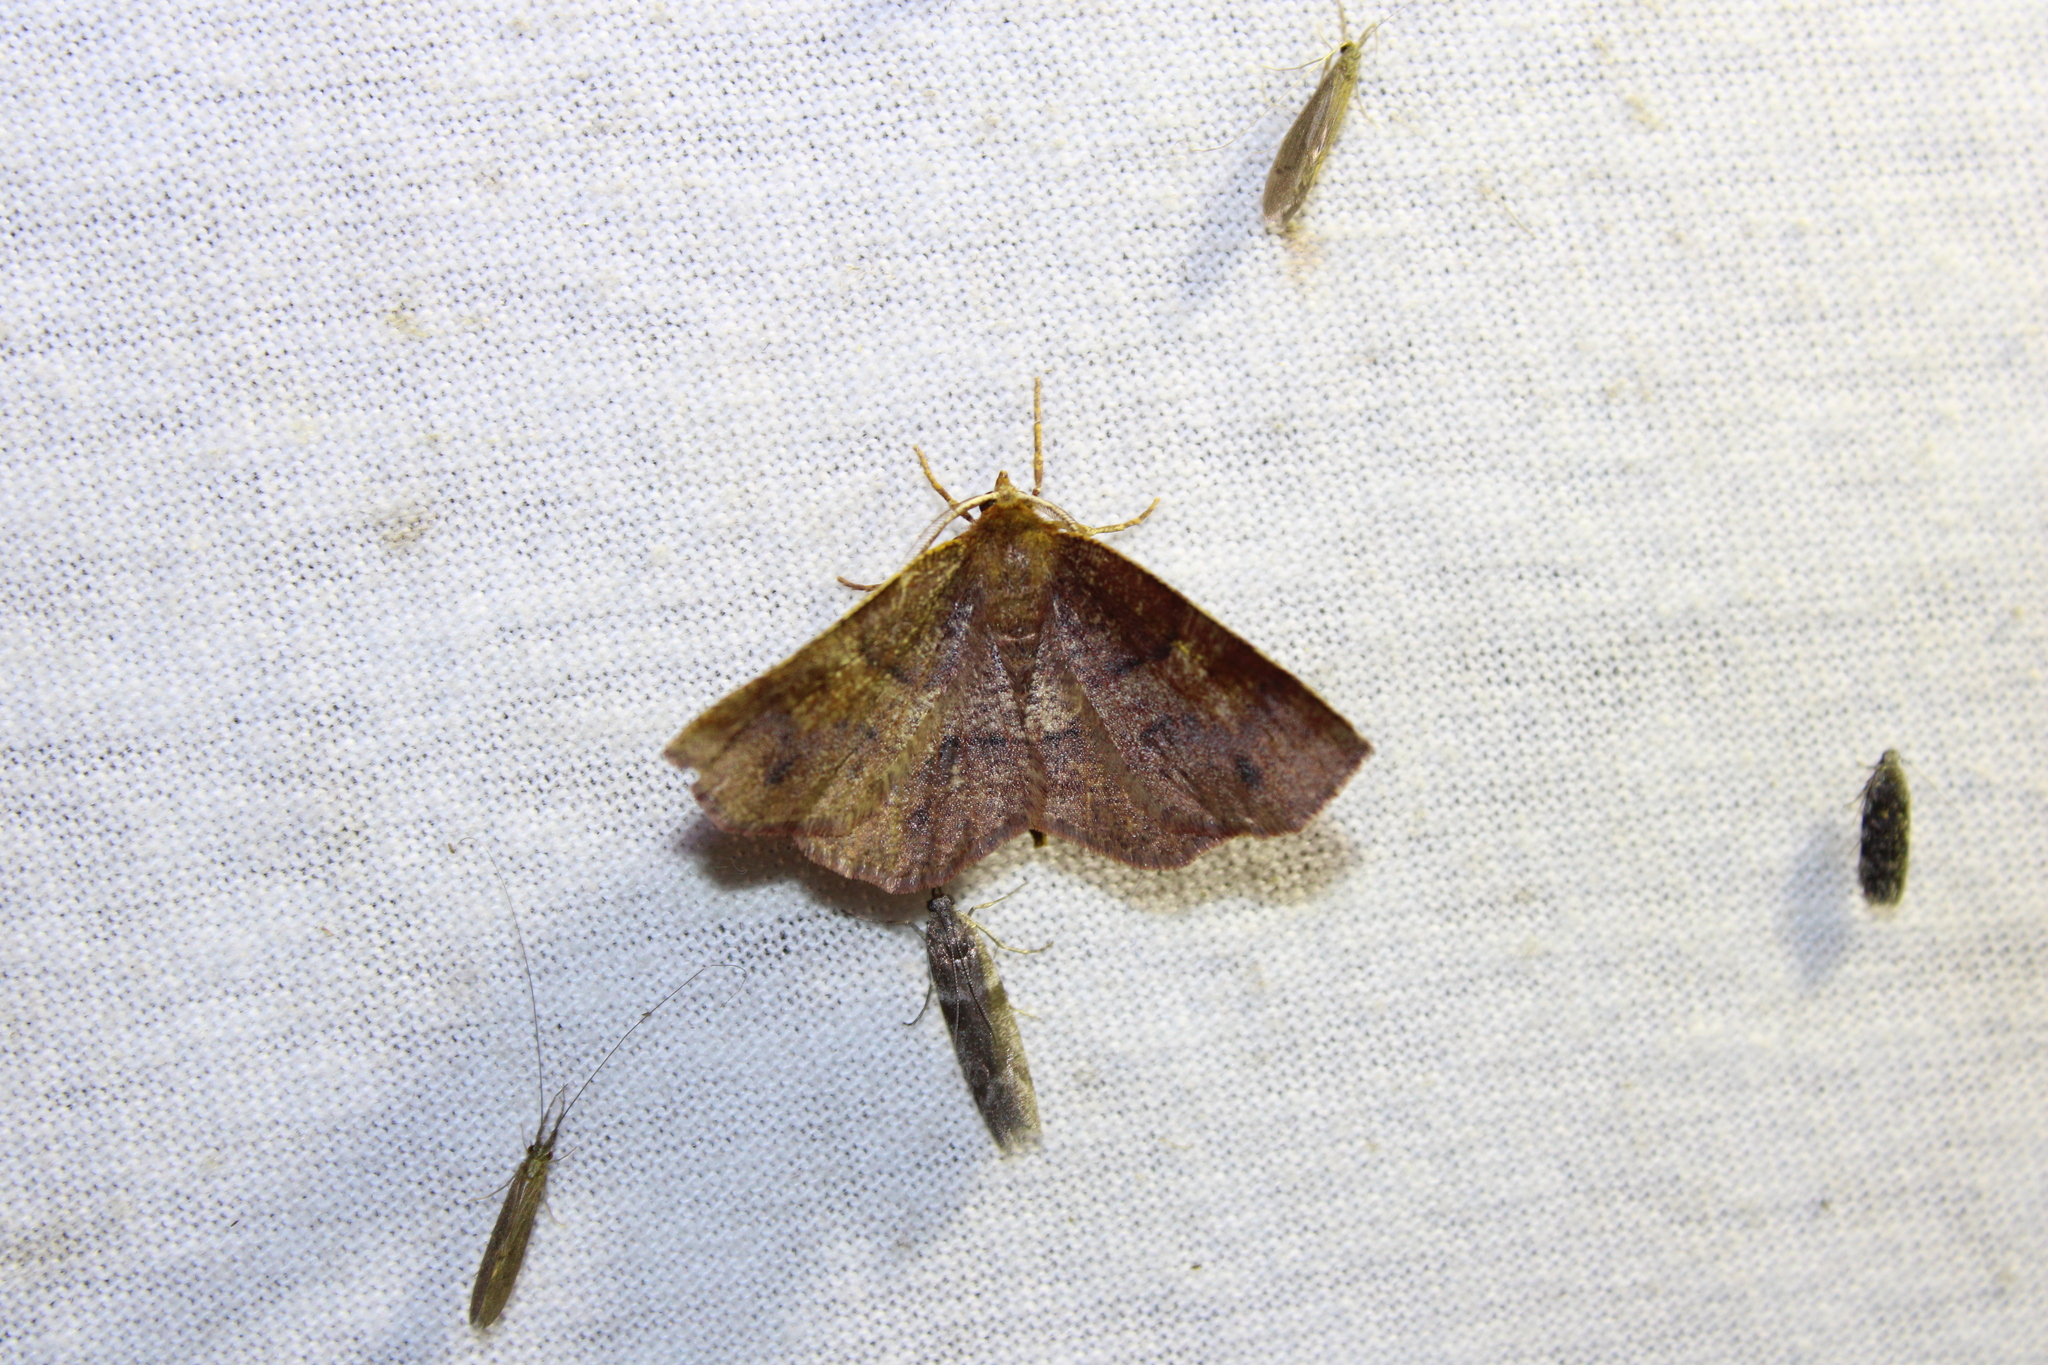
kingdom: Animalia
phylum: Arthropoda
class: Insecta
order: Lepidoptera
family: Geometridae
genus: Metarranthis
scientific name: Metarranthis angularia
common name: Angled metarranthis moth
